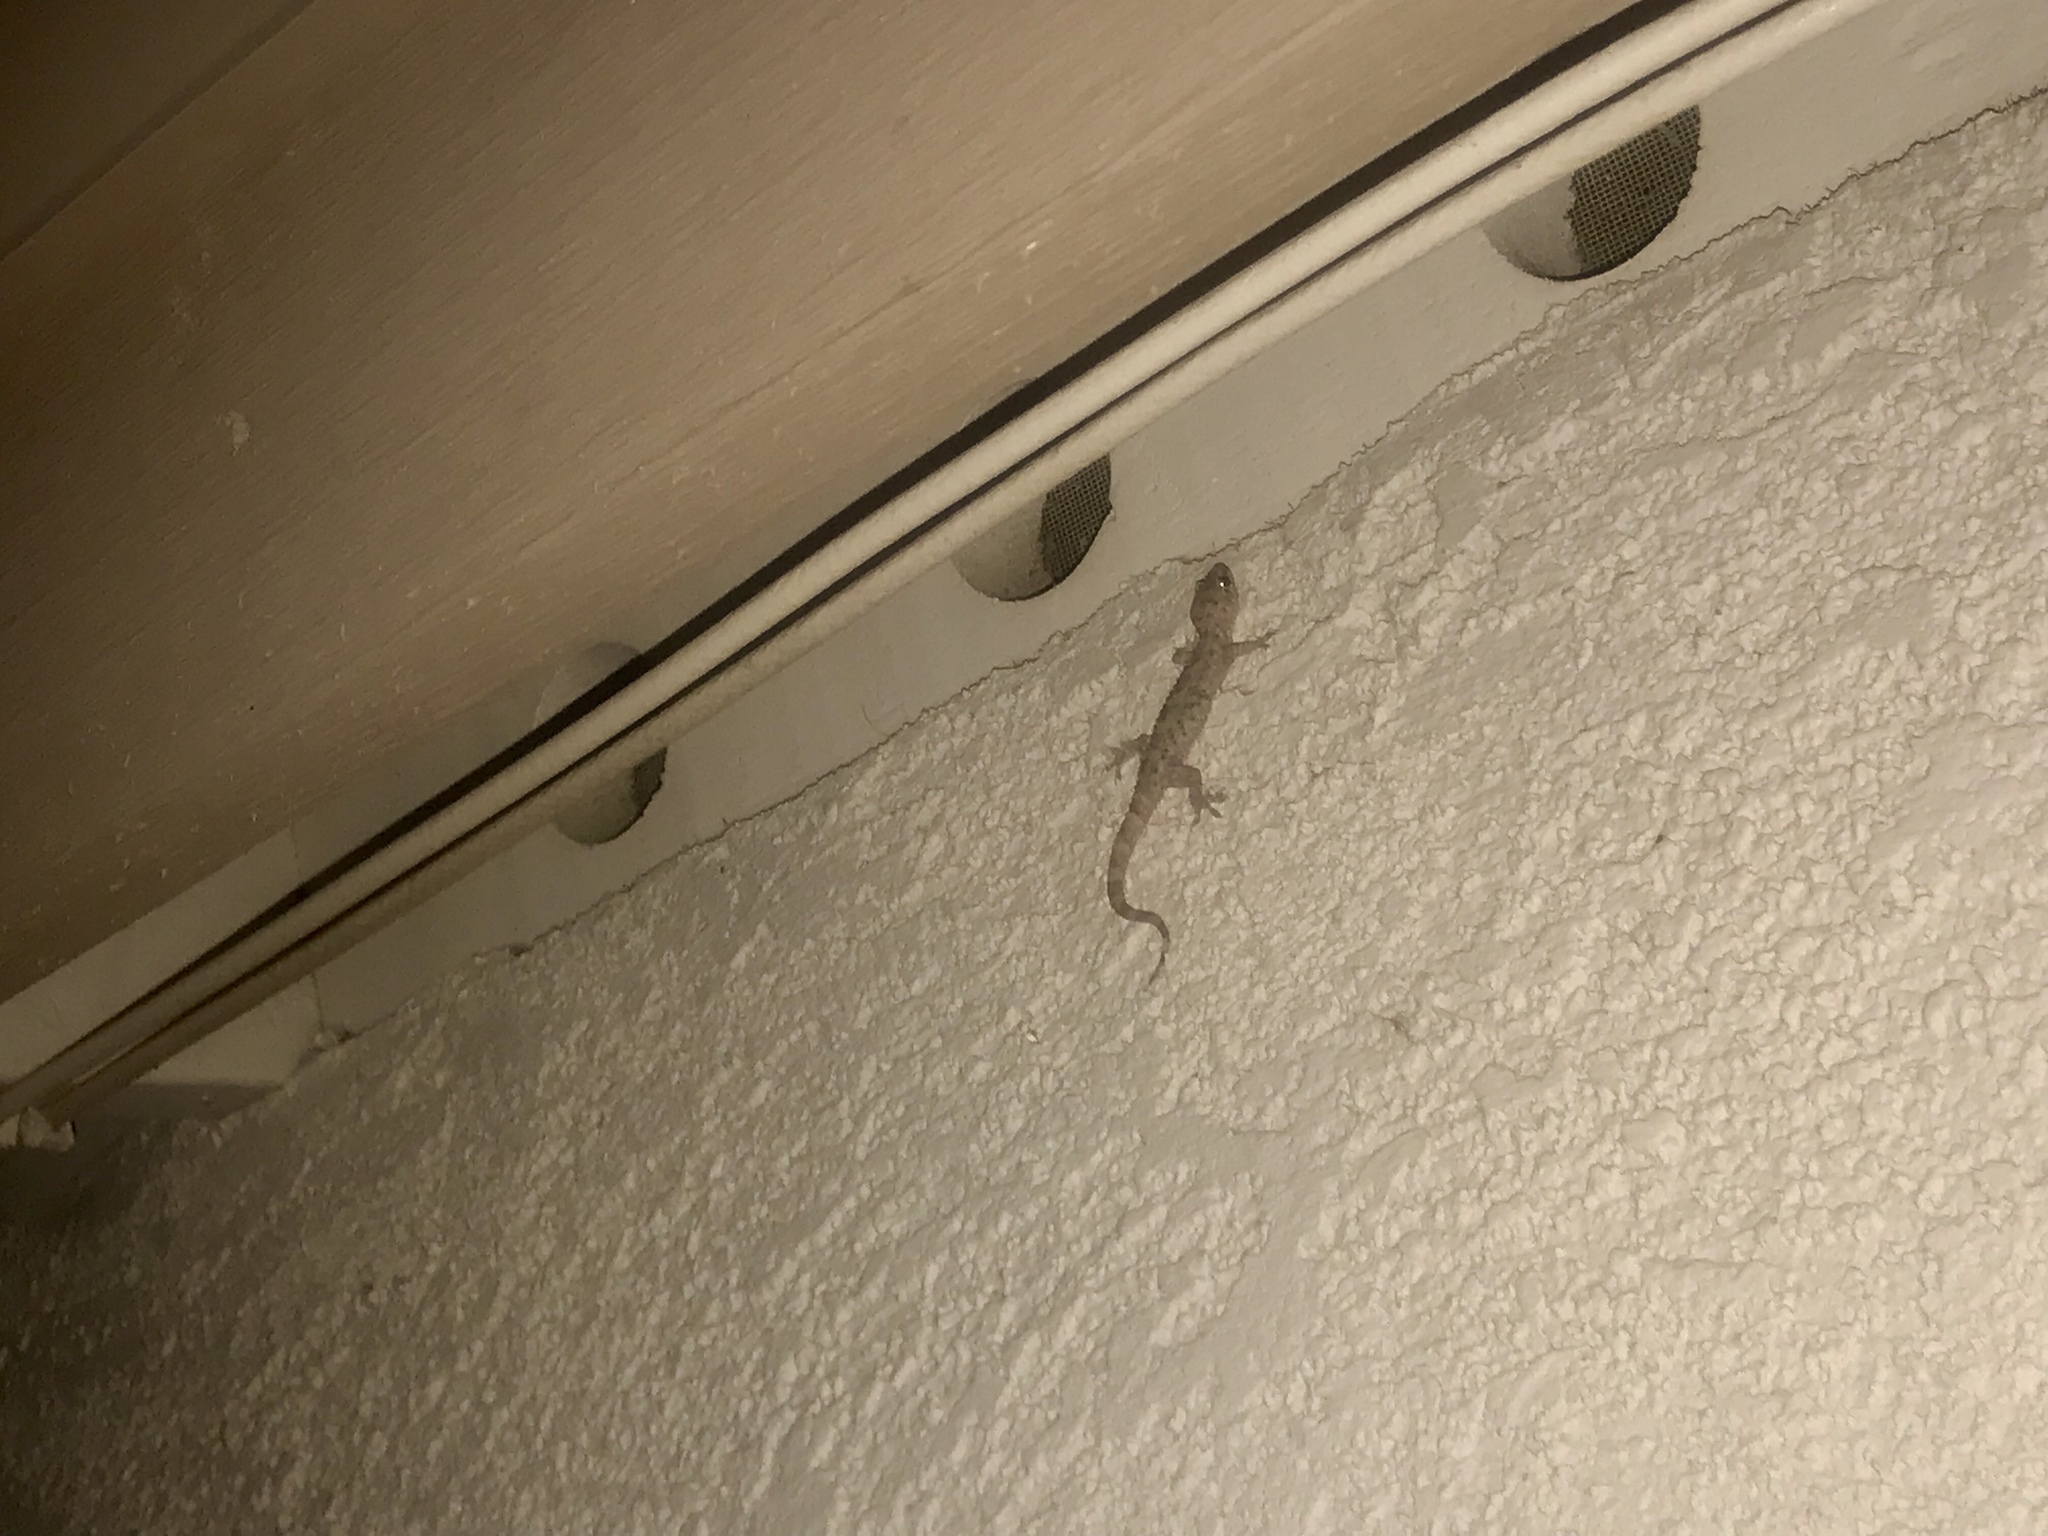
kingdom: Animalia
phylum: Chordata
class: Squamata
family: Gekkonidae
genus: Hemidactylus
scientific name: Hemidactylus turcicus
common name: Turkish gecko
